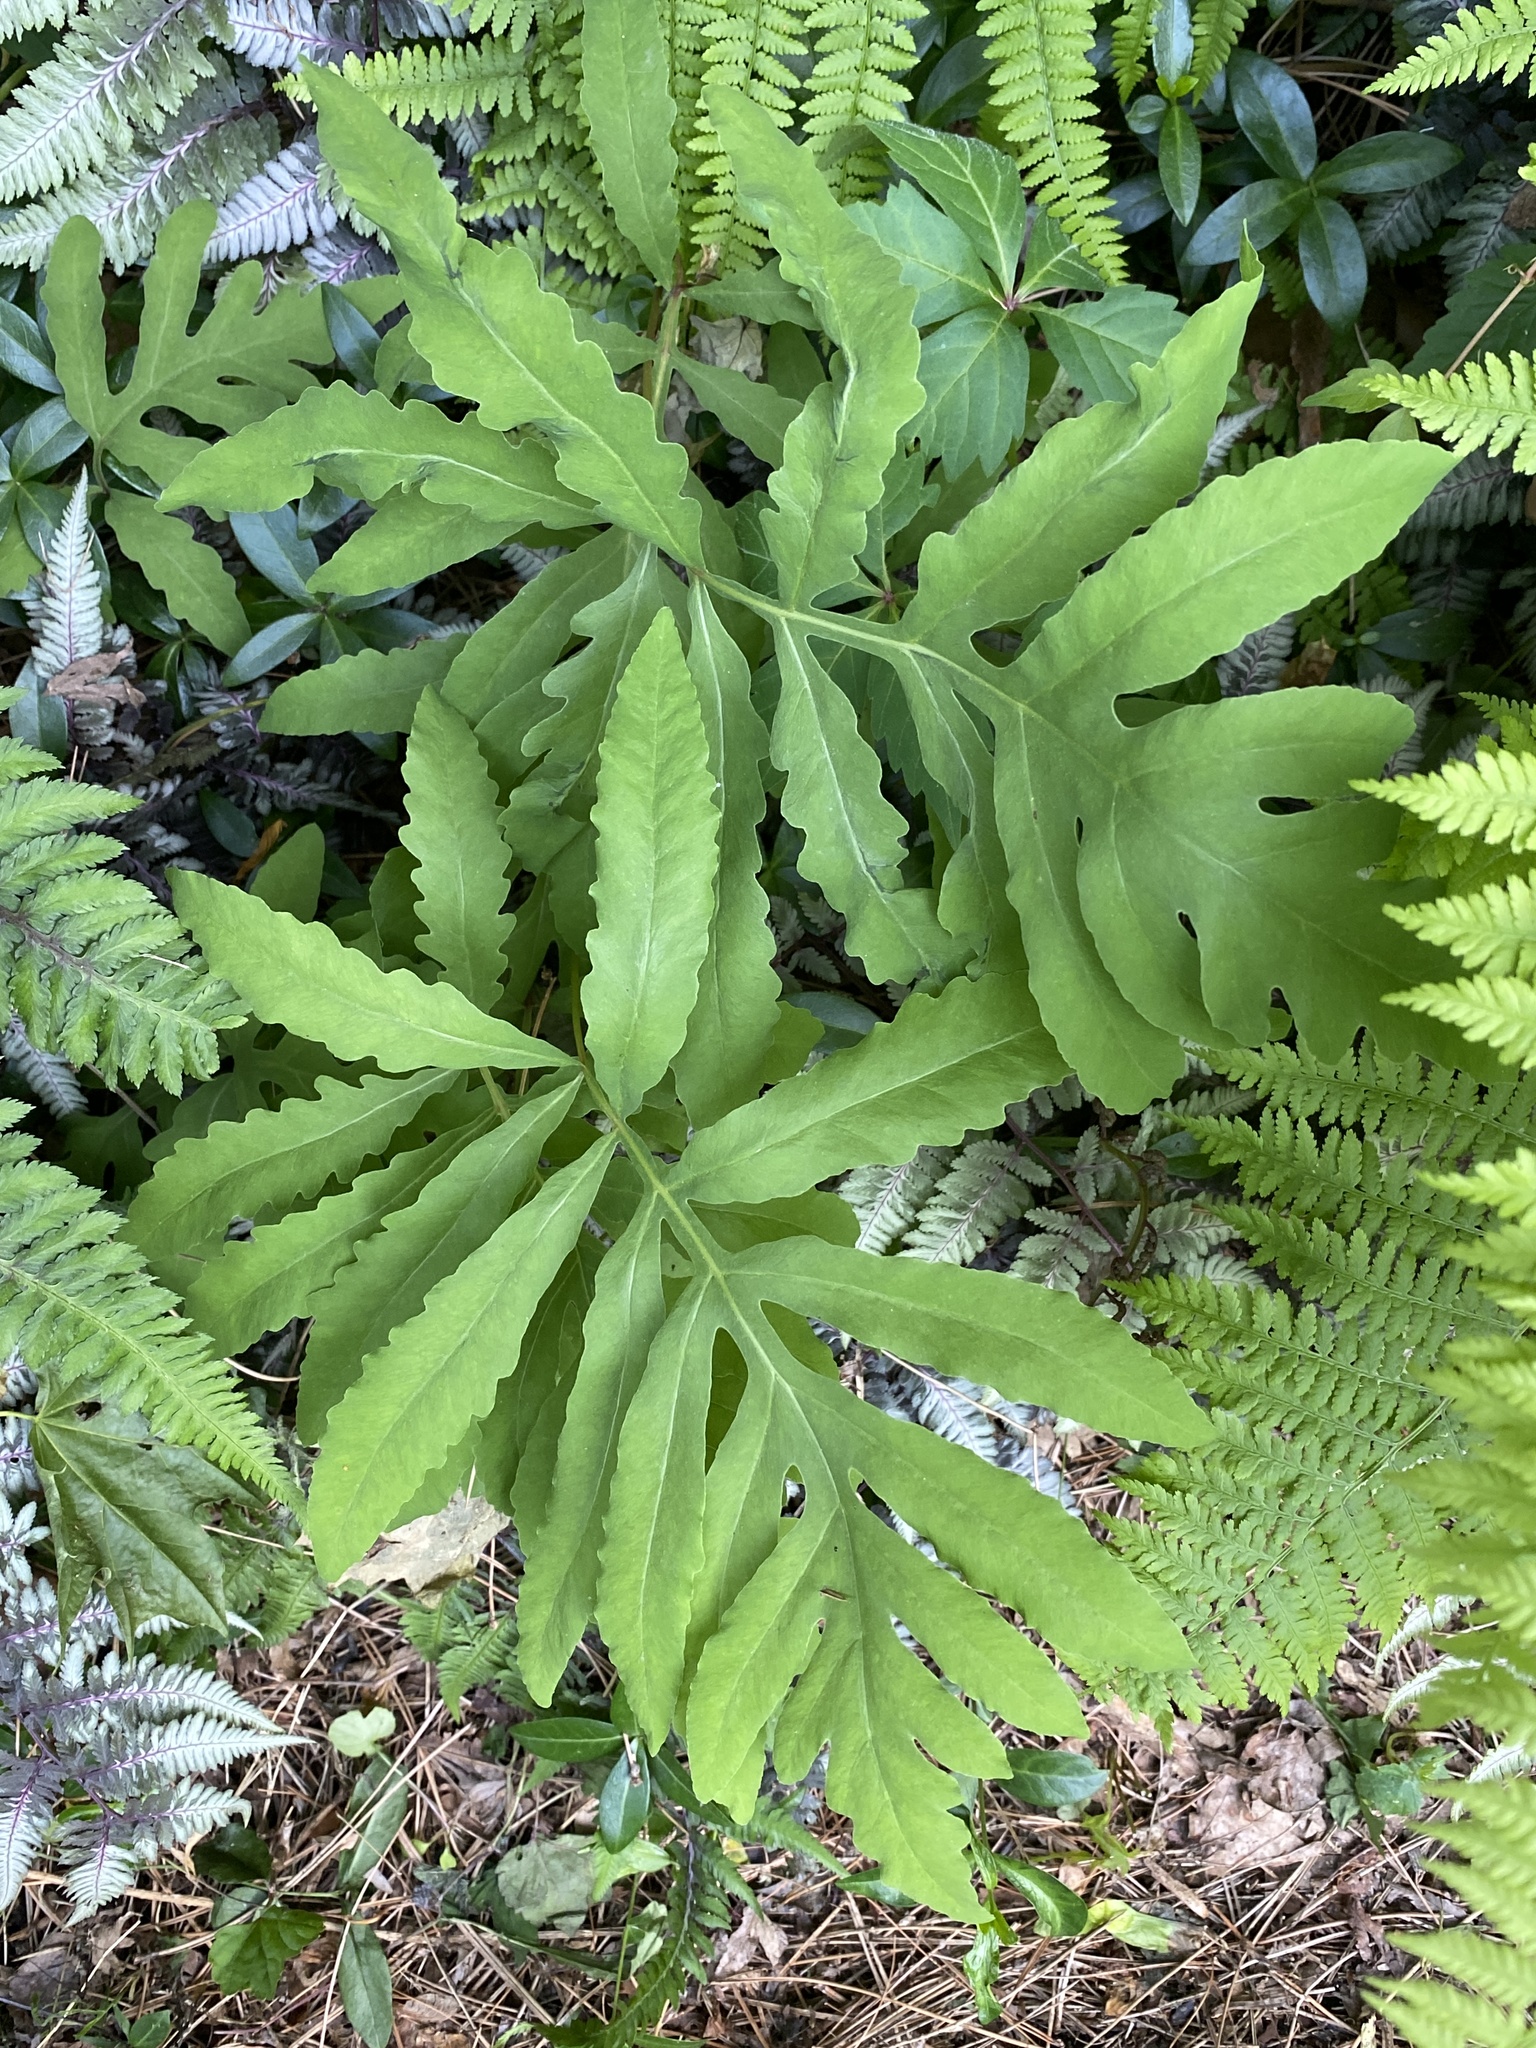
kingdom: Plantae
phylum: Tracheophyta
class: Polypodiopsida
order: Polypodiales
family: Onocleaceae
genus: Onoclea
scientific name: Onoclea sensibilis
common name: Sensitive fern
